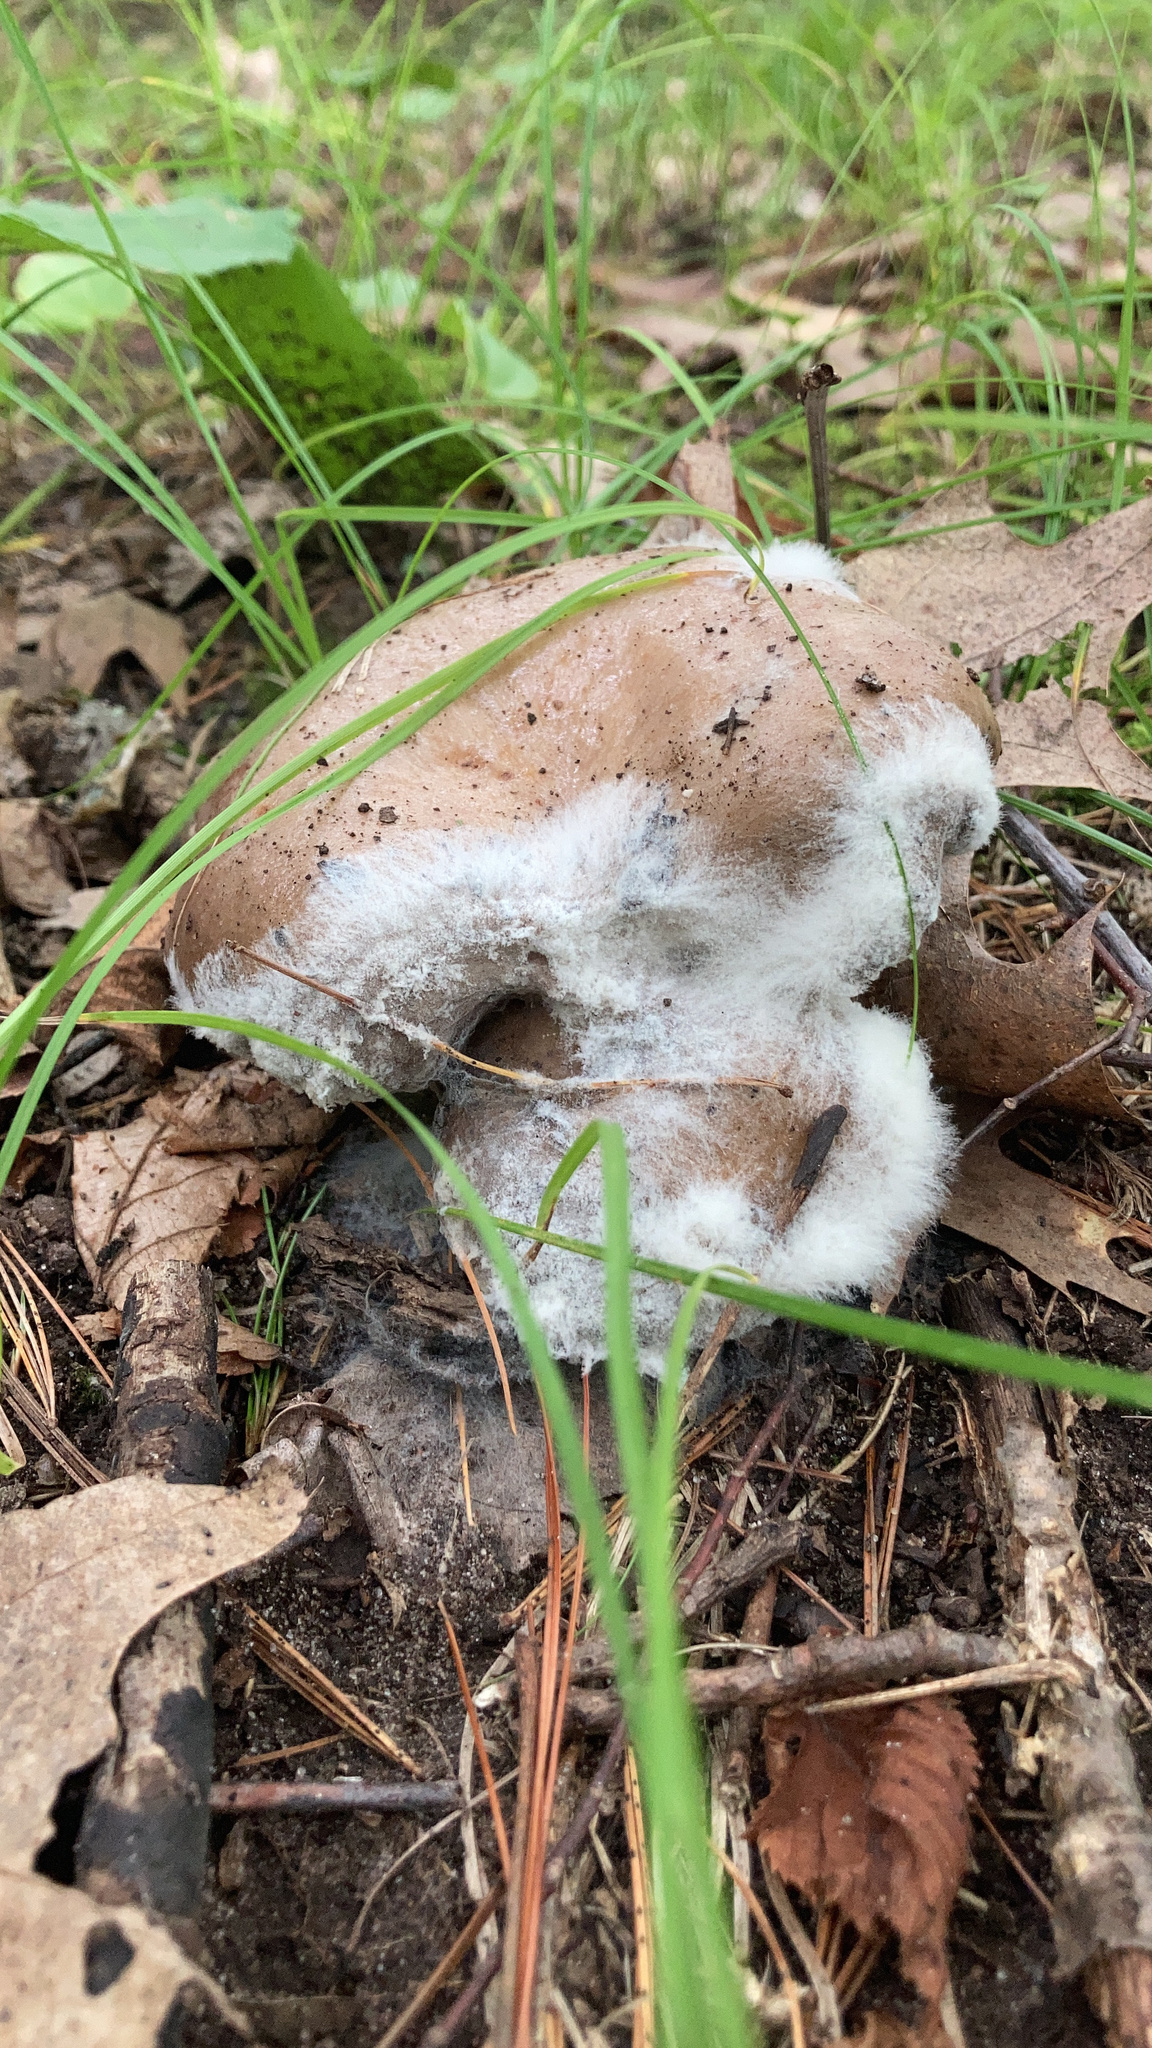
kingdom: Fungi
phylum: Mucoromycota
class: Mucoromycetes
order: Mucorales
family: Rhizopodaceae
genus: Syzygites
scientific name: Syzygites megalocarpus
